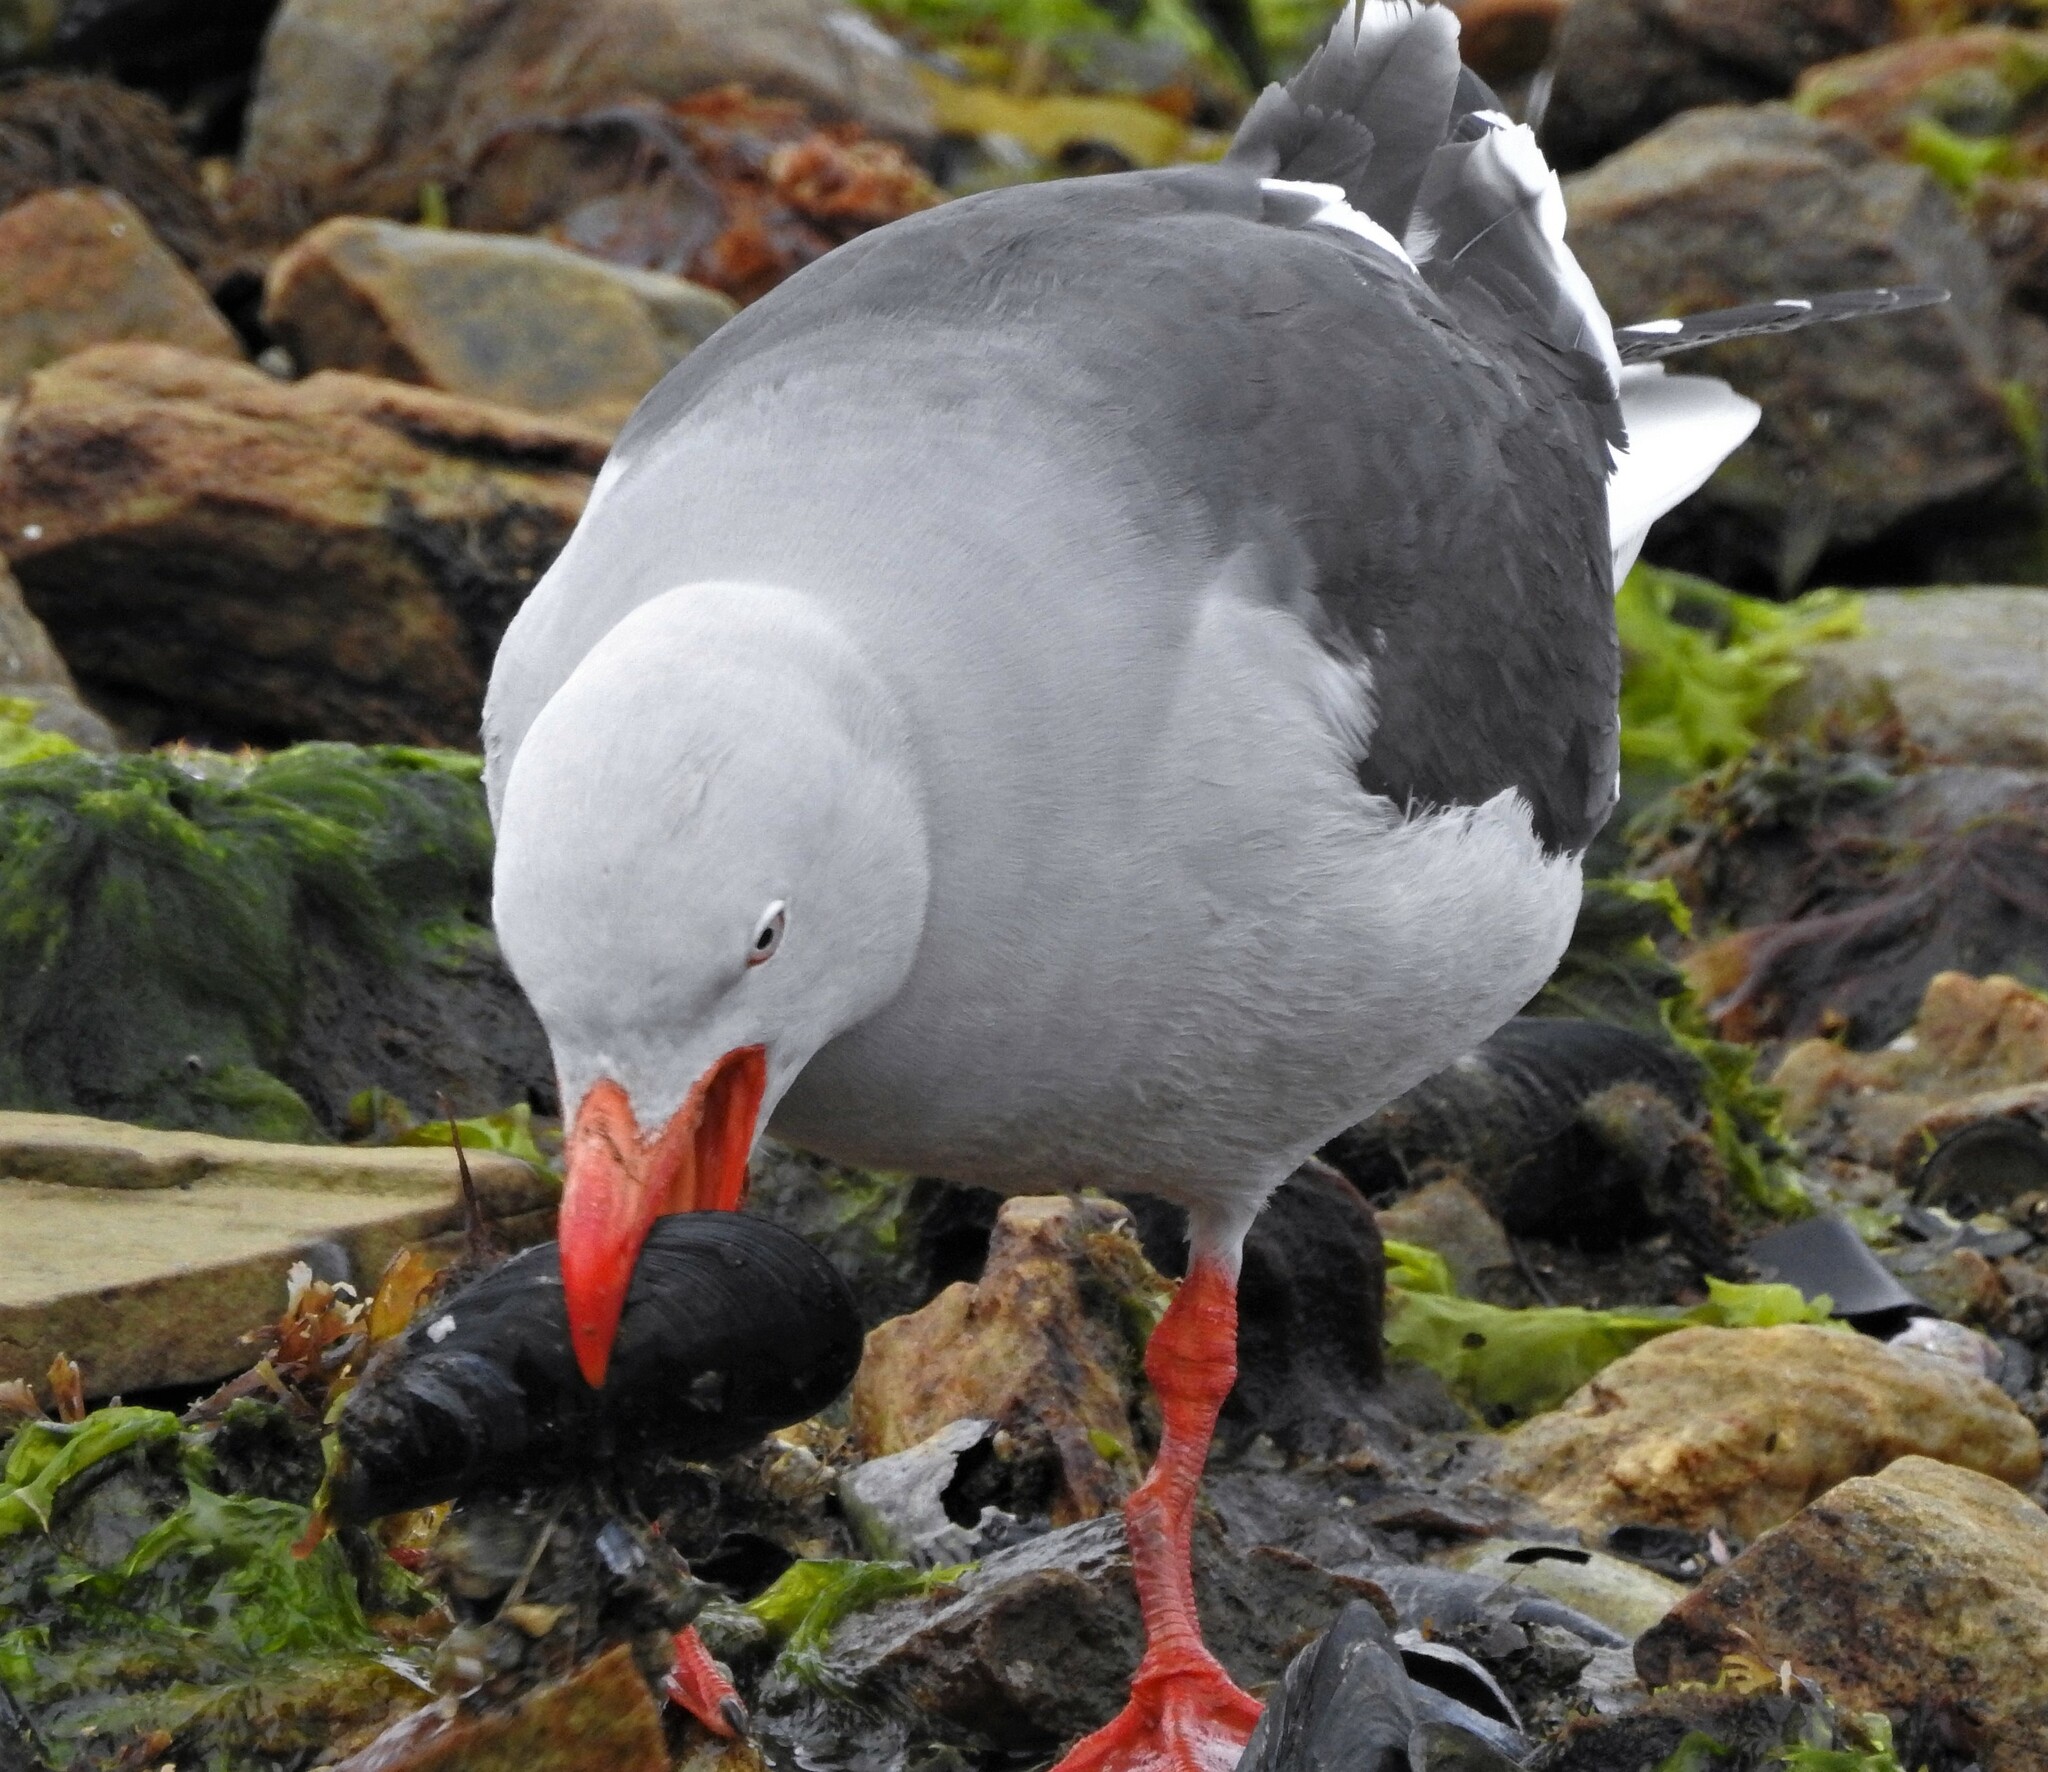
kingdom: Animalia
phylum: Chordata
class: Aves
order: Charadriiformes
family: Laridae
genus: Leucophaeus
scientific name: Leucophaeus scoresbii
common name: Dolphin gull
